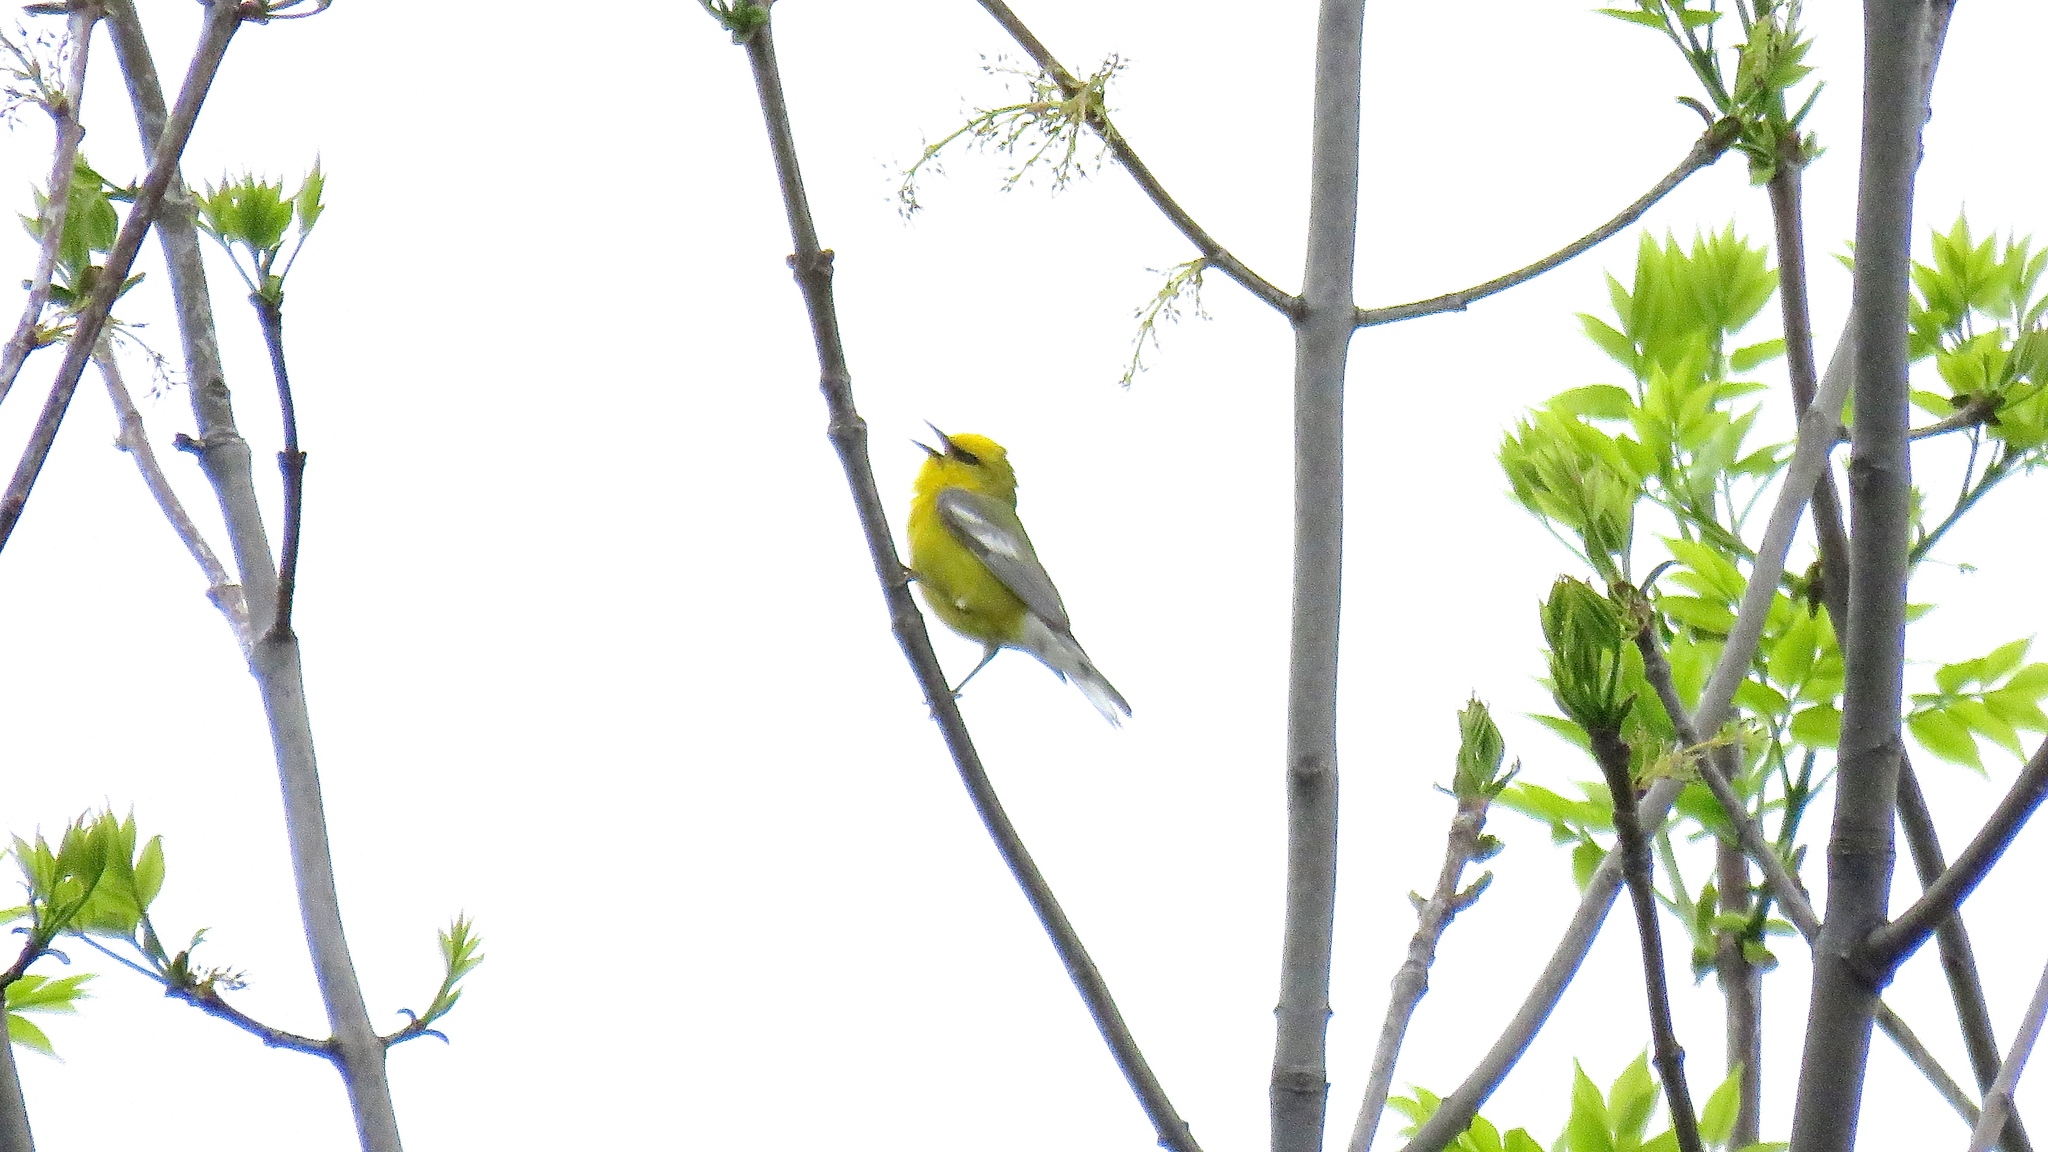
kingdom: Animalia
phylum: Chordata
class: Aves
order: Passeriformes
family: Parulidae
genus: Vermivora
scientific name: Vermivora cyanoptera
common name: Blue-winged warbler
